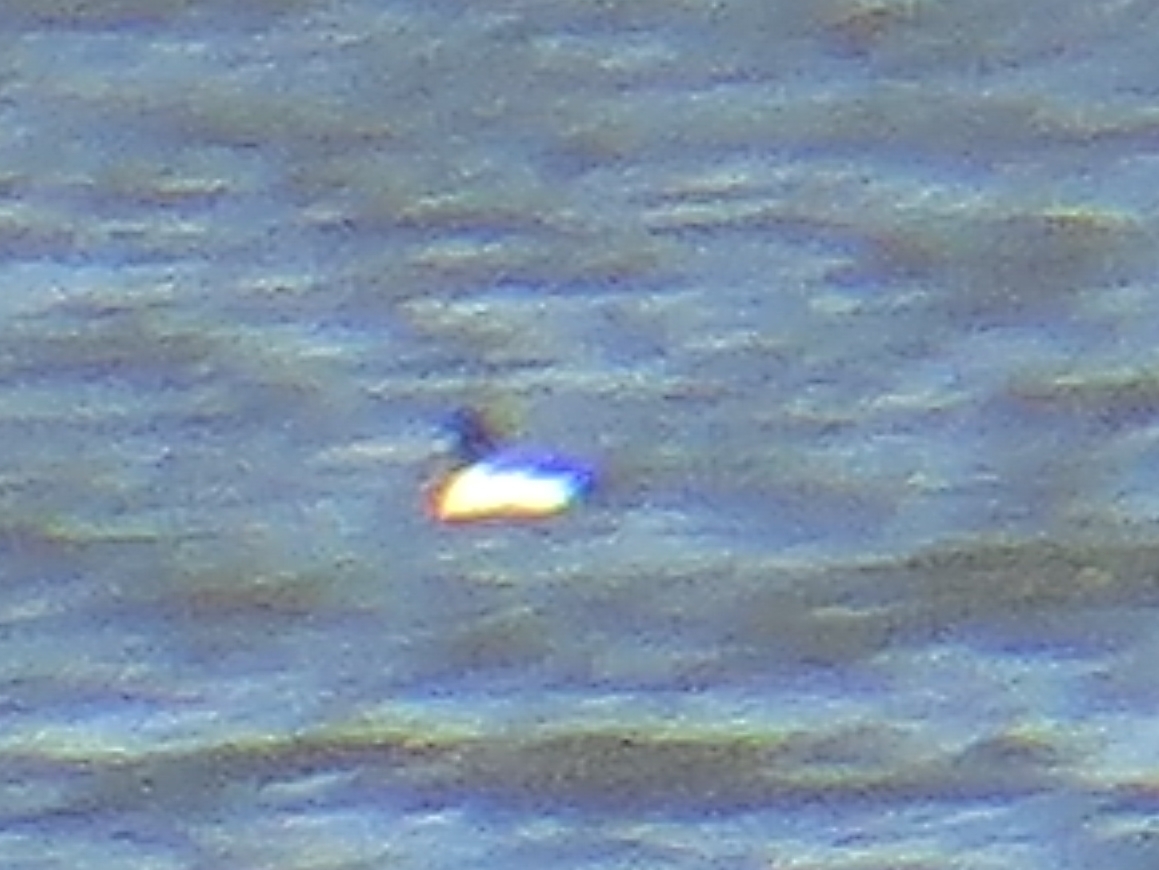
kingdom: Animalia
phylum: Chordata
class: Aves
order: Anseriformes
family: Anatidae
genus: Aythya
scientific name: Aythya fuligula
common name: Tufted duck
